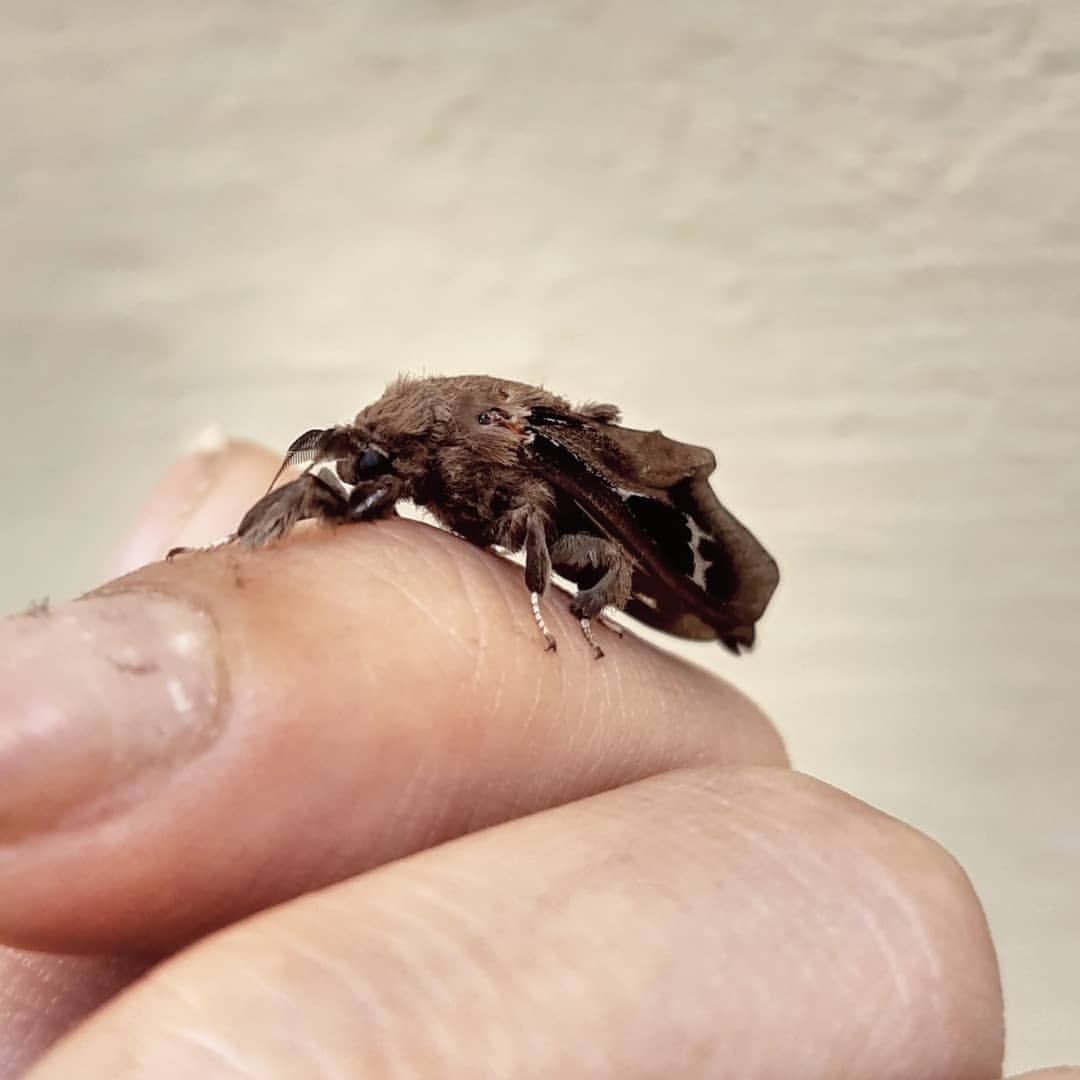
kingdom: Animalia
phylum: Arthropoda
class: Insecta
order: Lepidoptera
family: Psychidae
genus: Oiketicus
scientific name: Oiketicus kirbyi
